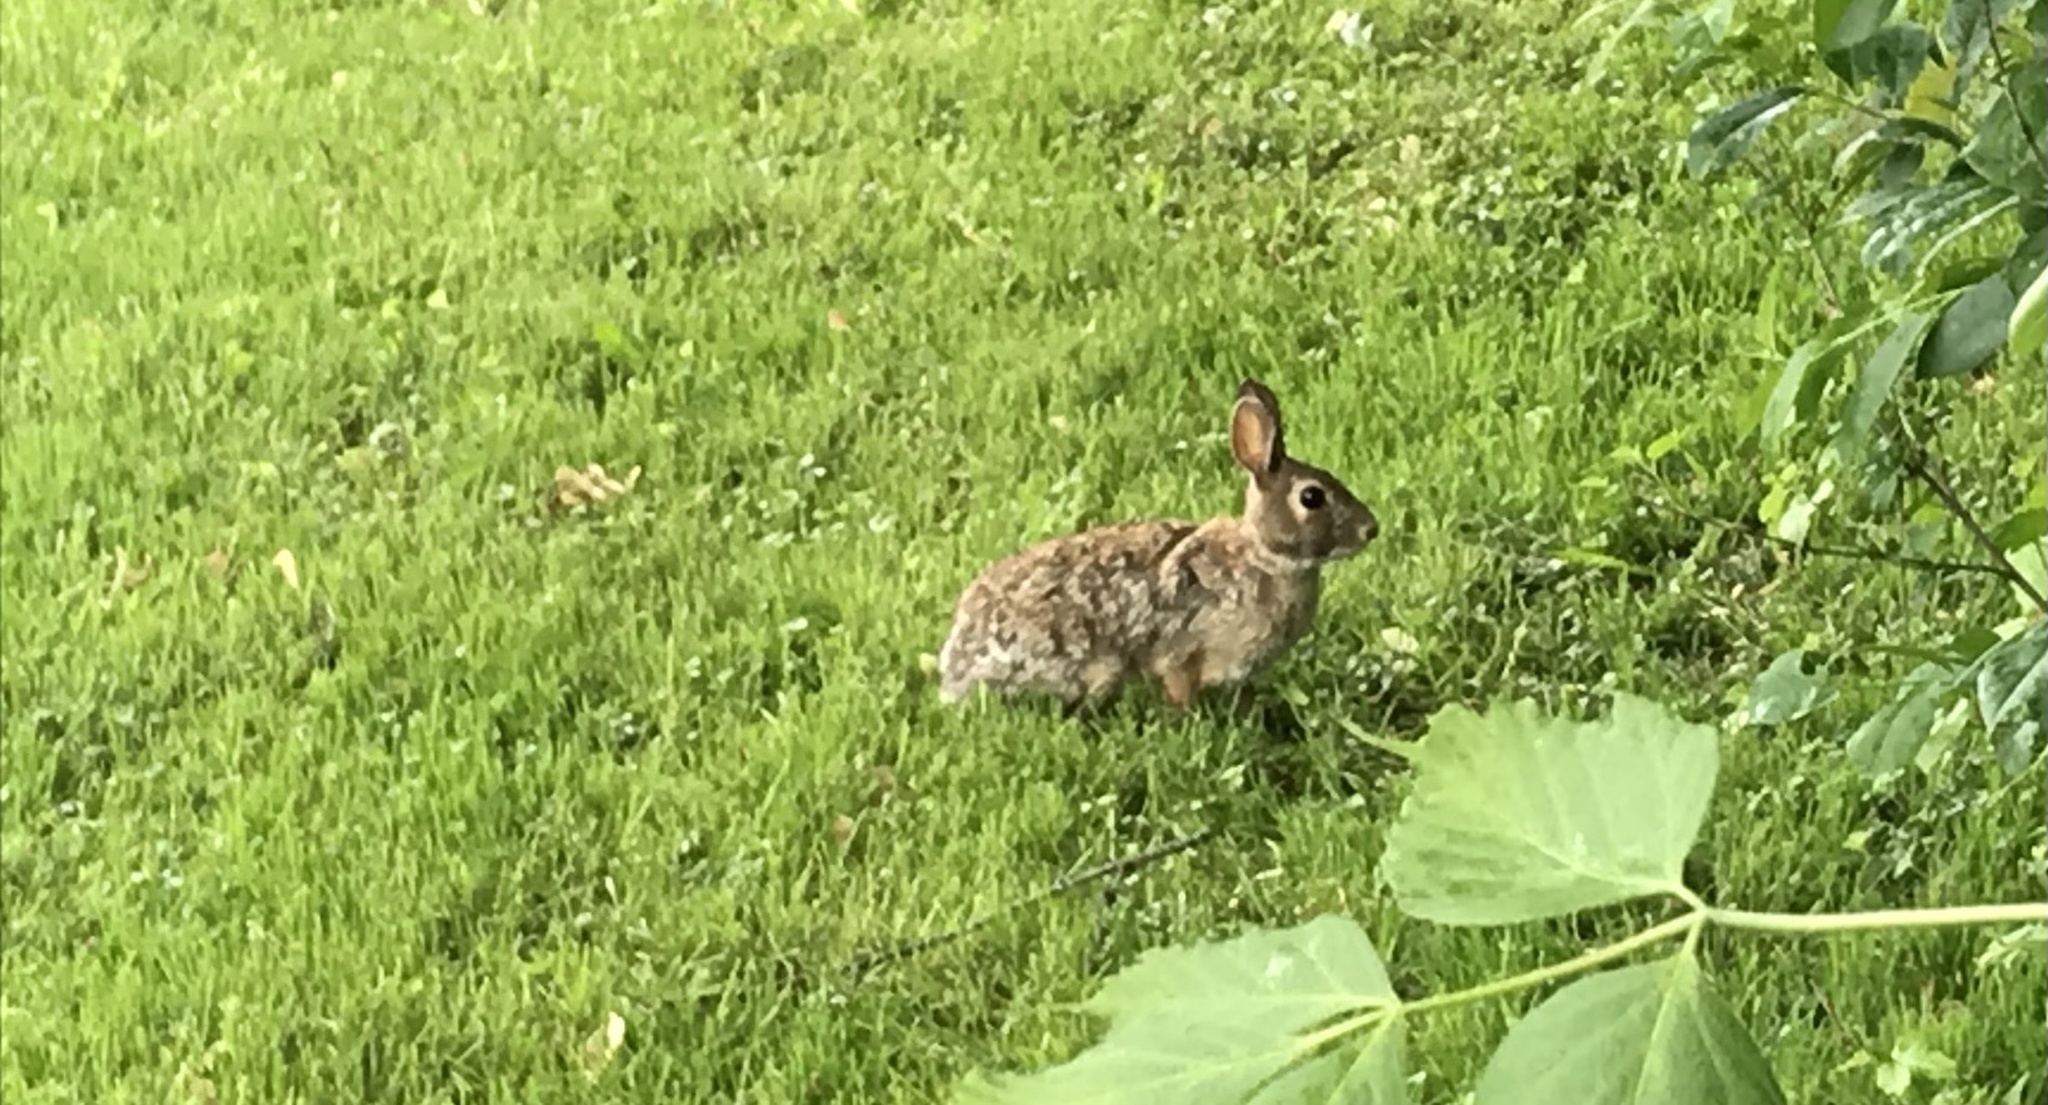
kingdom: Animalia
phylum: Chordata
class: Mammalia
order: Lagomorpha
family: Leporidae
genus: Sylvilagus
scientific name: Sylvilagus floridanus
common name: Eastern cottontail
